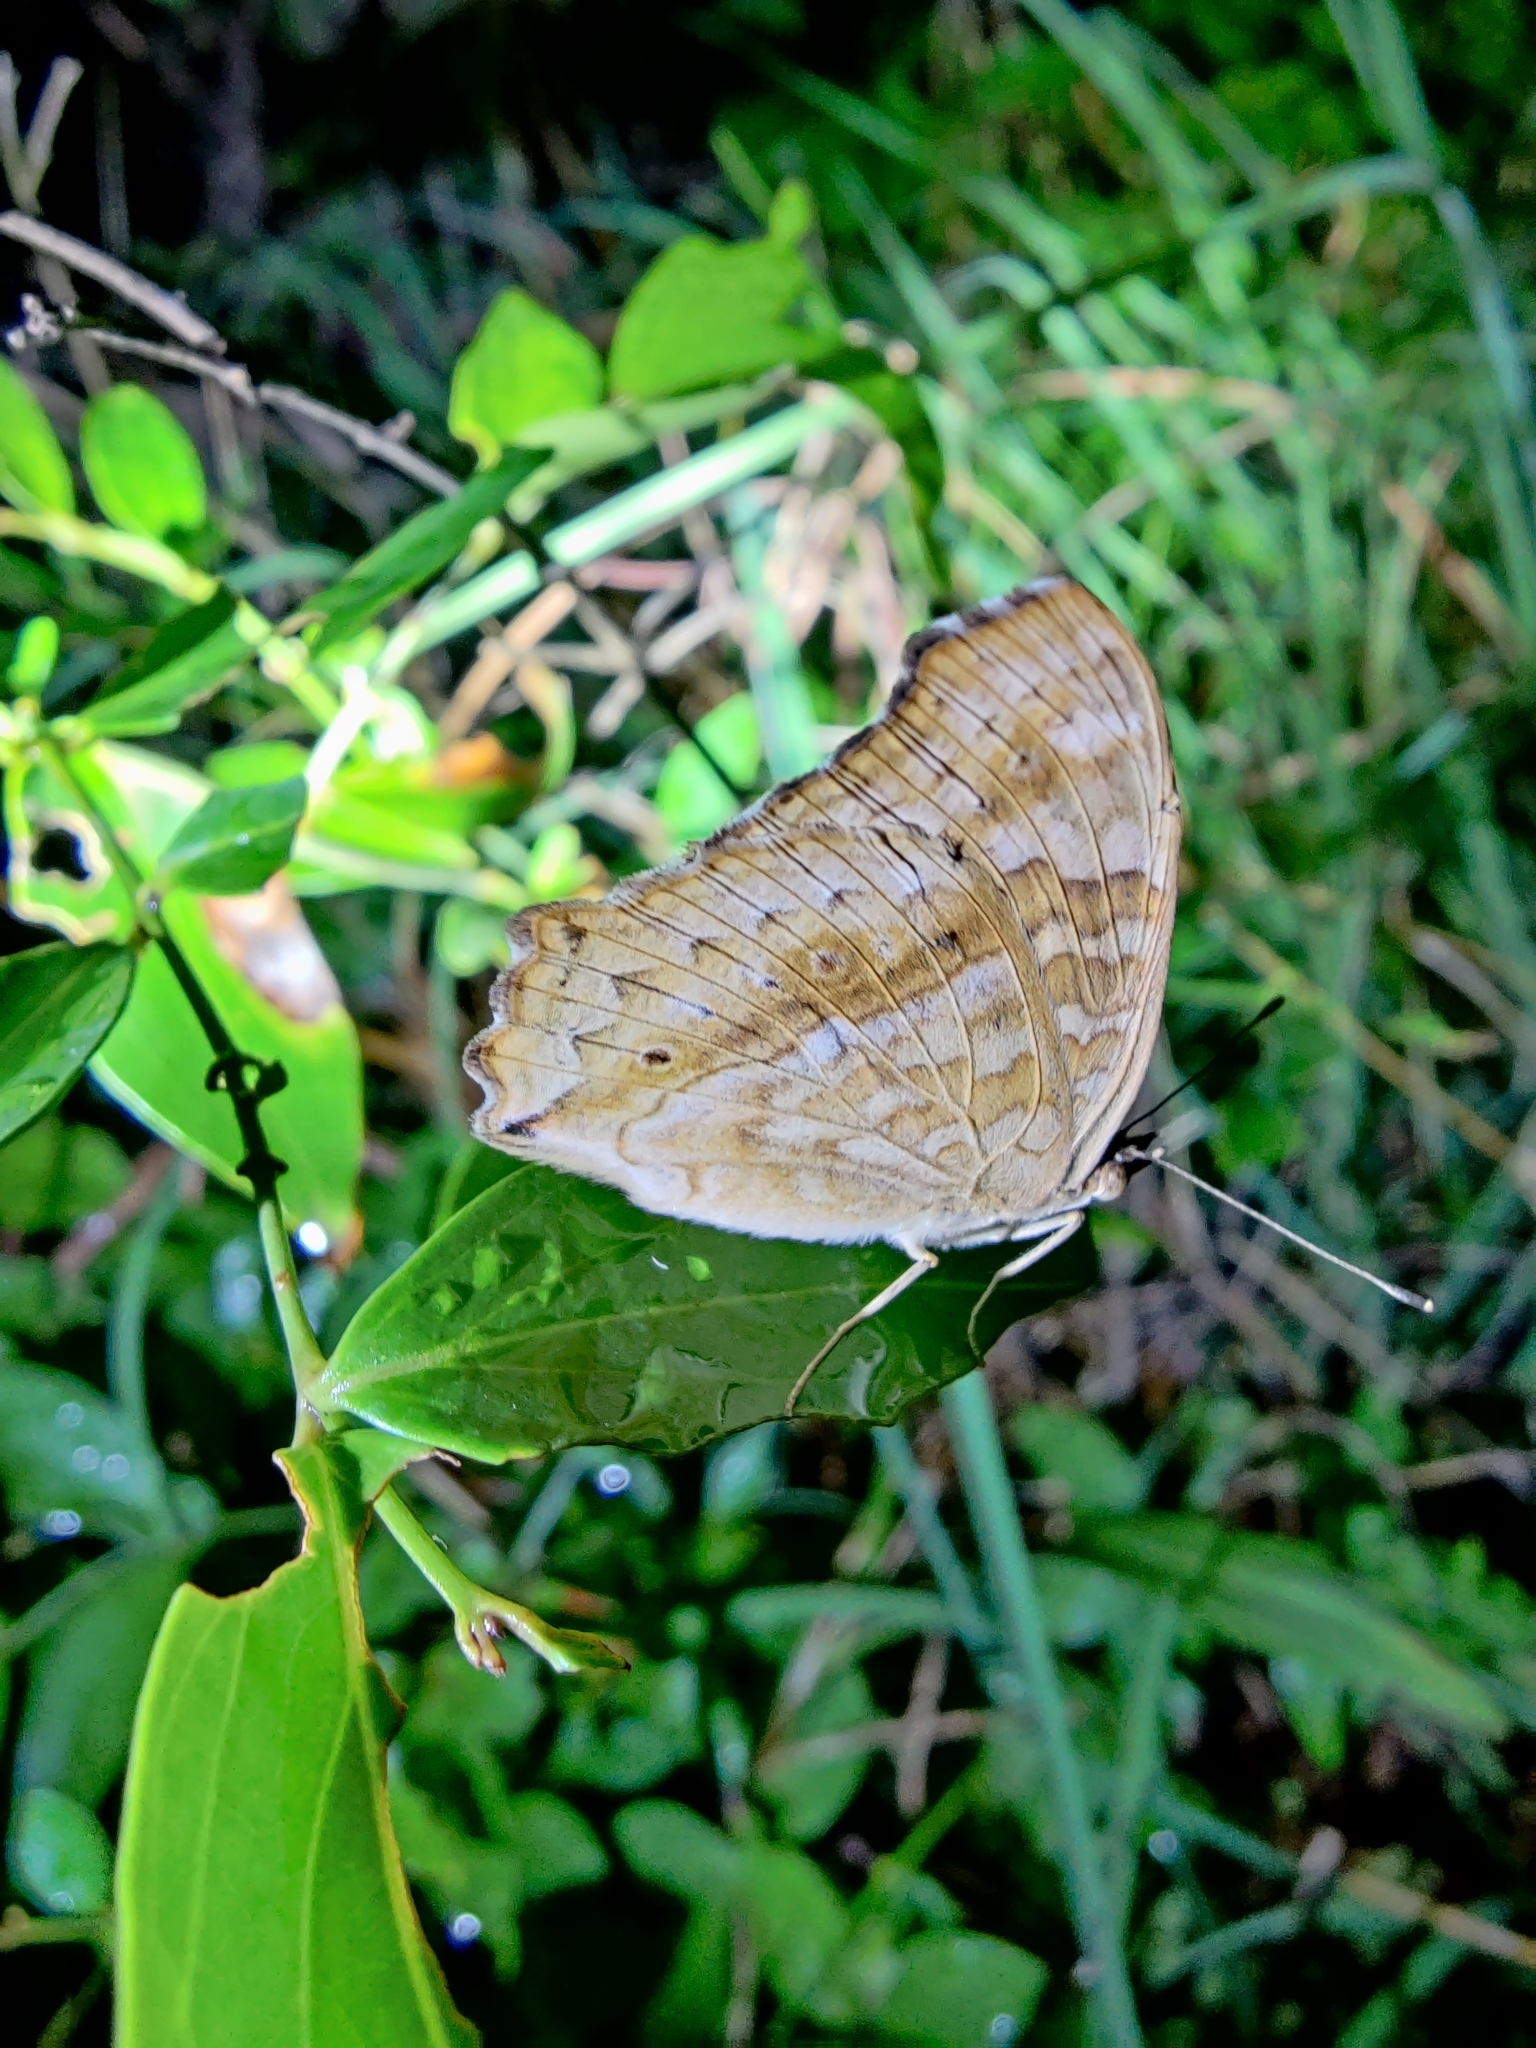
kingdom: Animalia
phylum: Arthropoda
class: Insecta
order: Lepidoptera
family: Nymphalidae
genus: Junonia
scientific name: Junonia lemonias
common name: Lemon pansy
